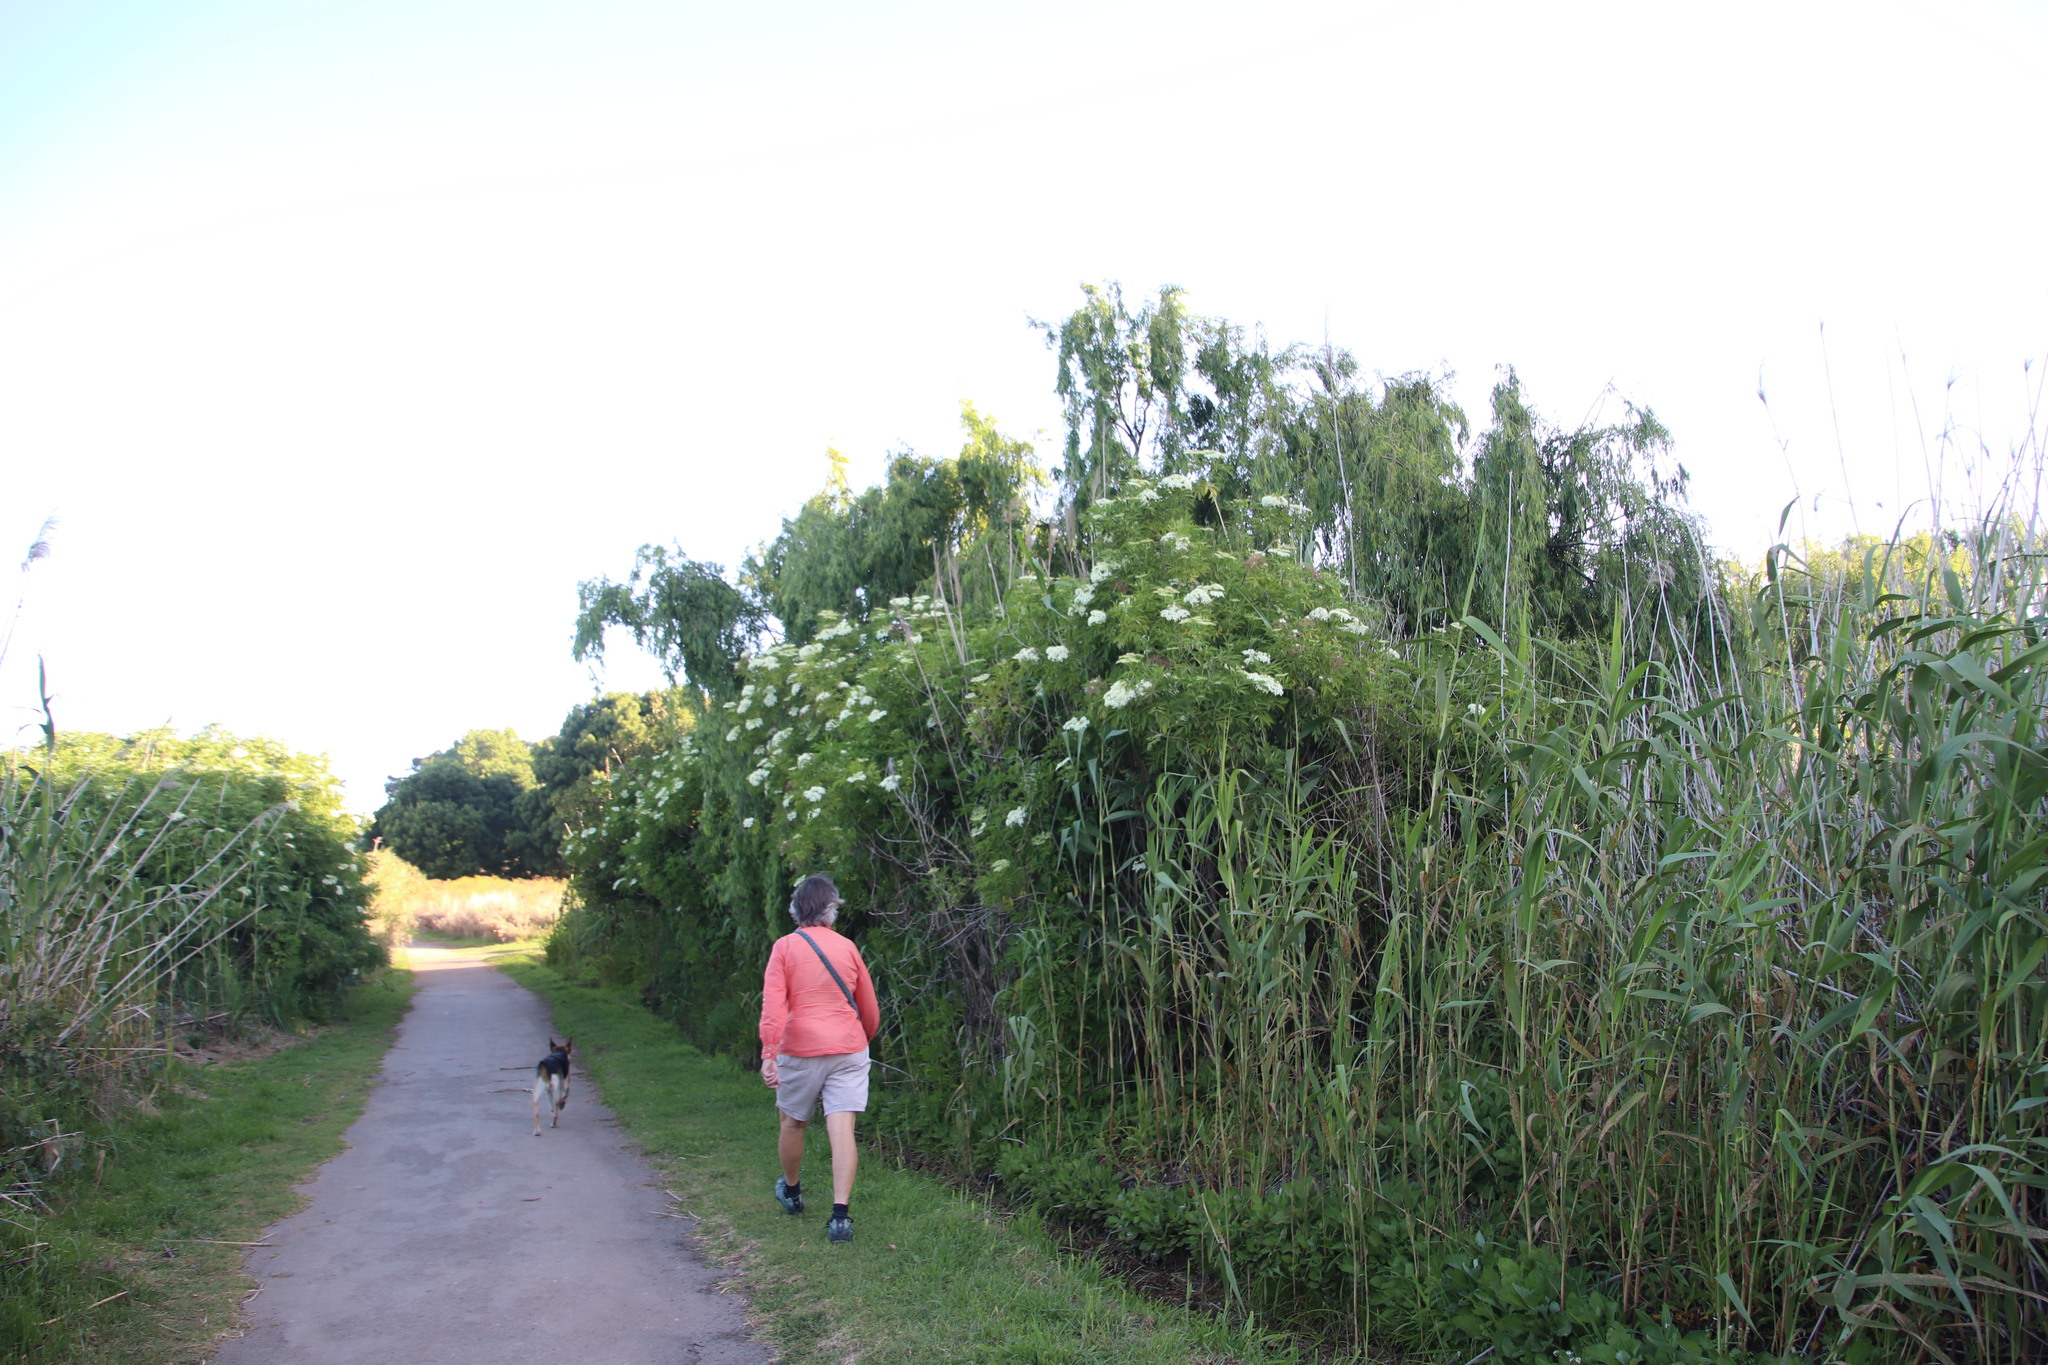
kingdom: Plantae
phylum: Tracheophyta
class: Magnoliopsida
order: Dipsacales
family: Viburnaceae
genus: Sambucus
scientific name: Sambucus nigra
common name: Elder
